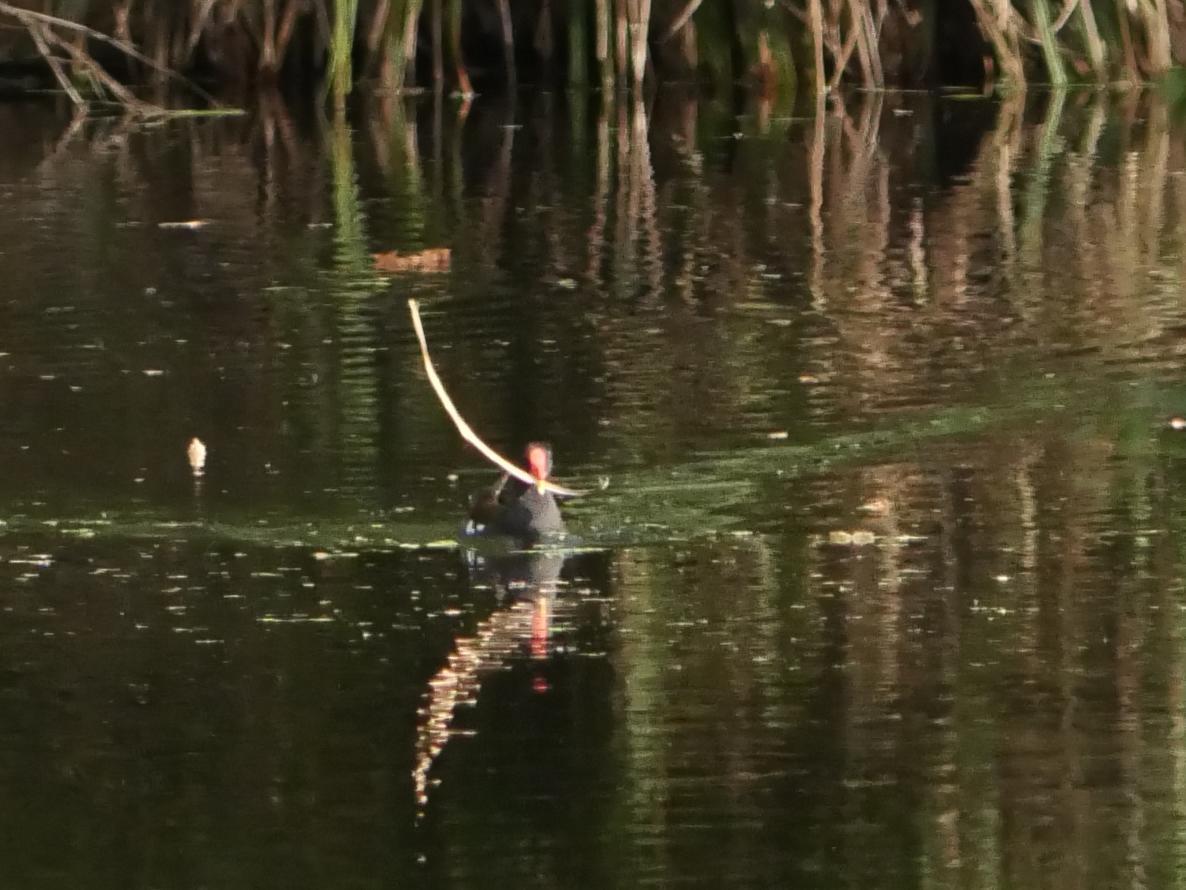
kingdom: Animalia
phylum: Chordata
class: Aves
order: Gruiformes
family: Rallidae
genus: Gallinula
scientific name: Gallinula chloropus
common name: Common moorhen
